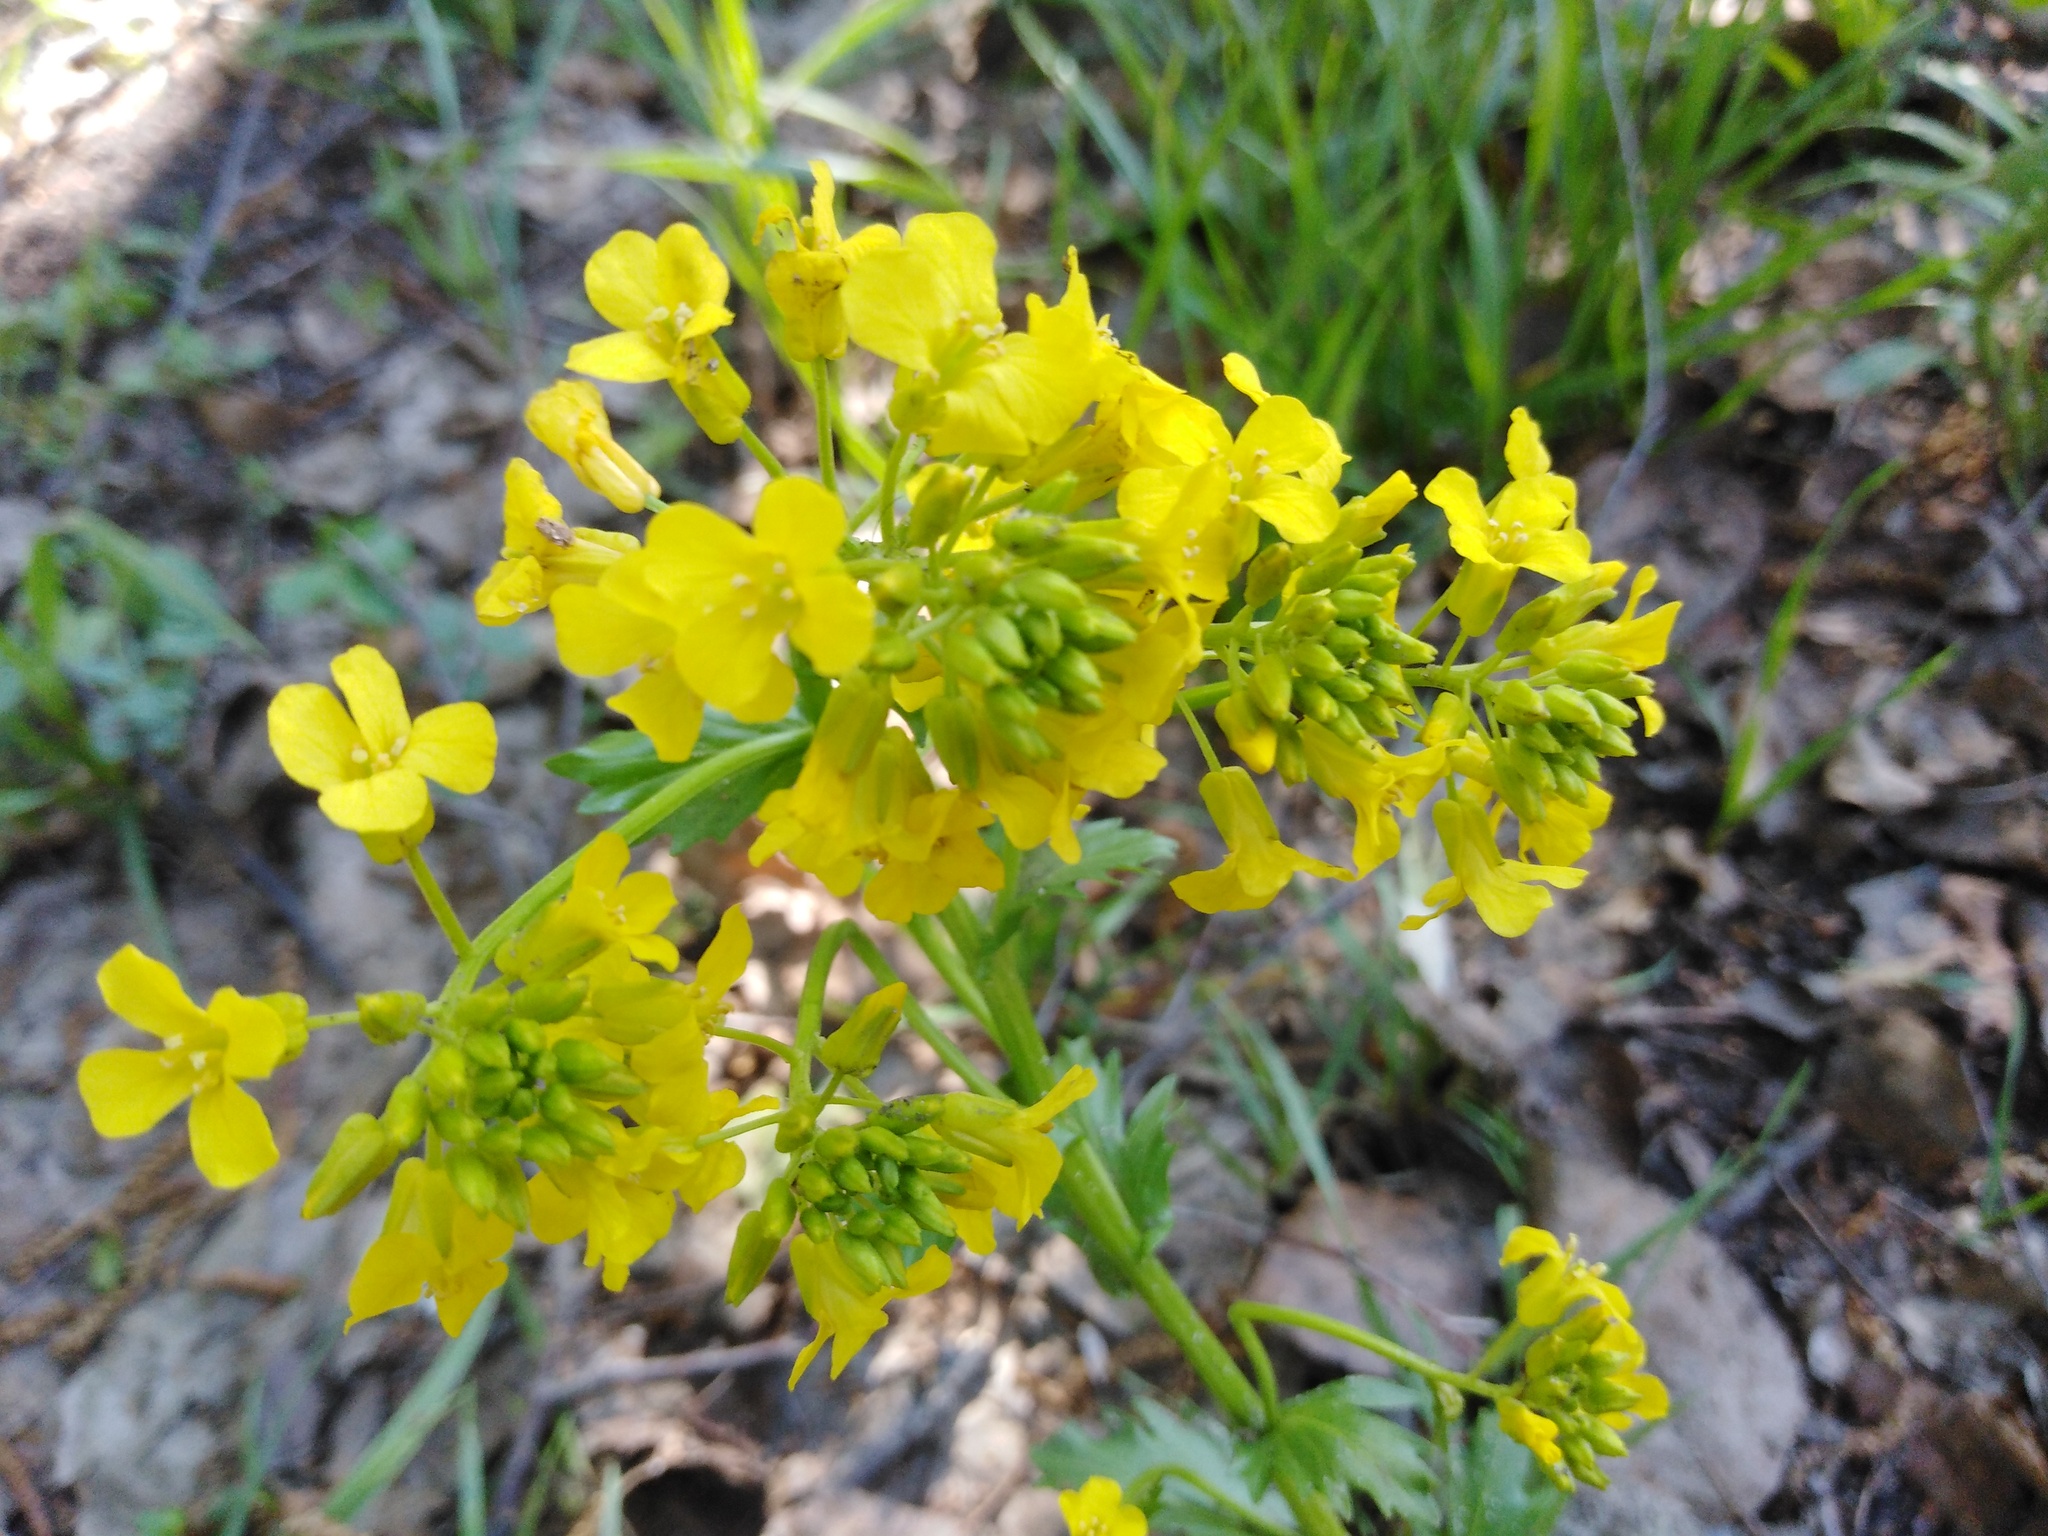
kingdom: Plantae
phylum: Tracheophyta
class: Magnoliopsida
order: Brassicales
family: Brassicaceae
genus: Barbarea
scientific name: Barbarea vulgaris
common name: Cressy-greens
